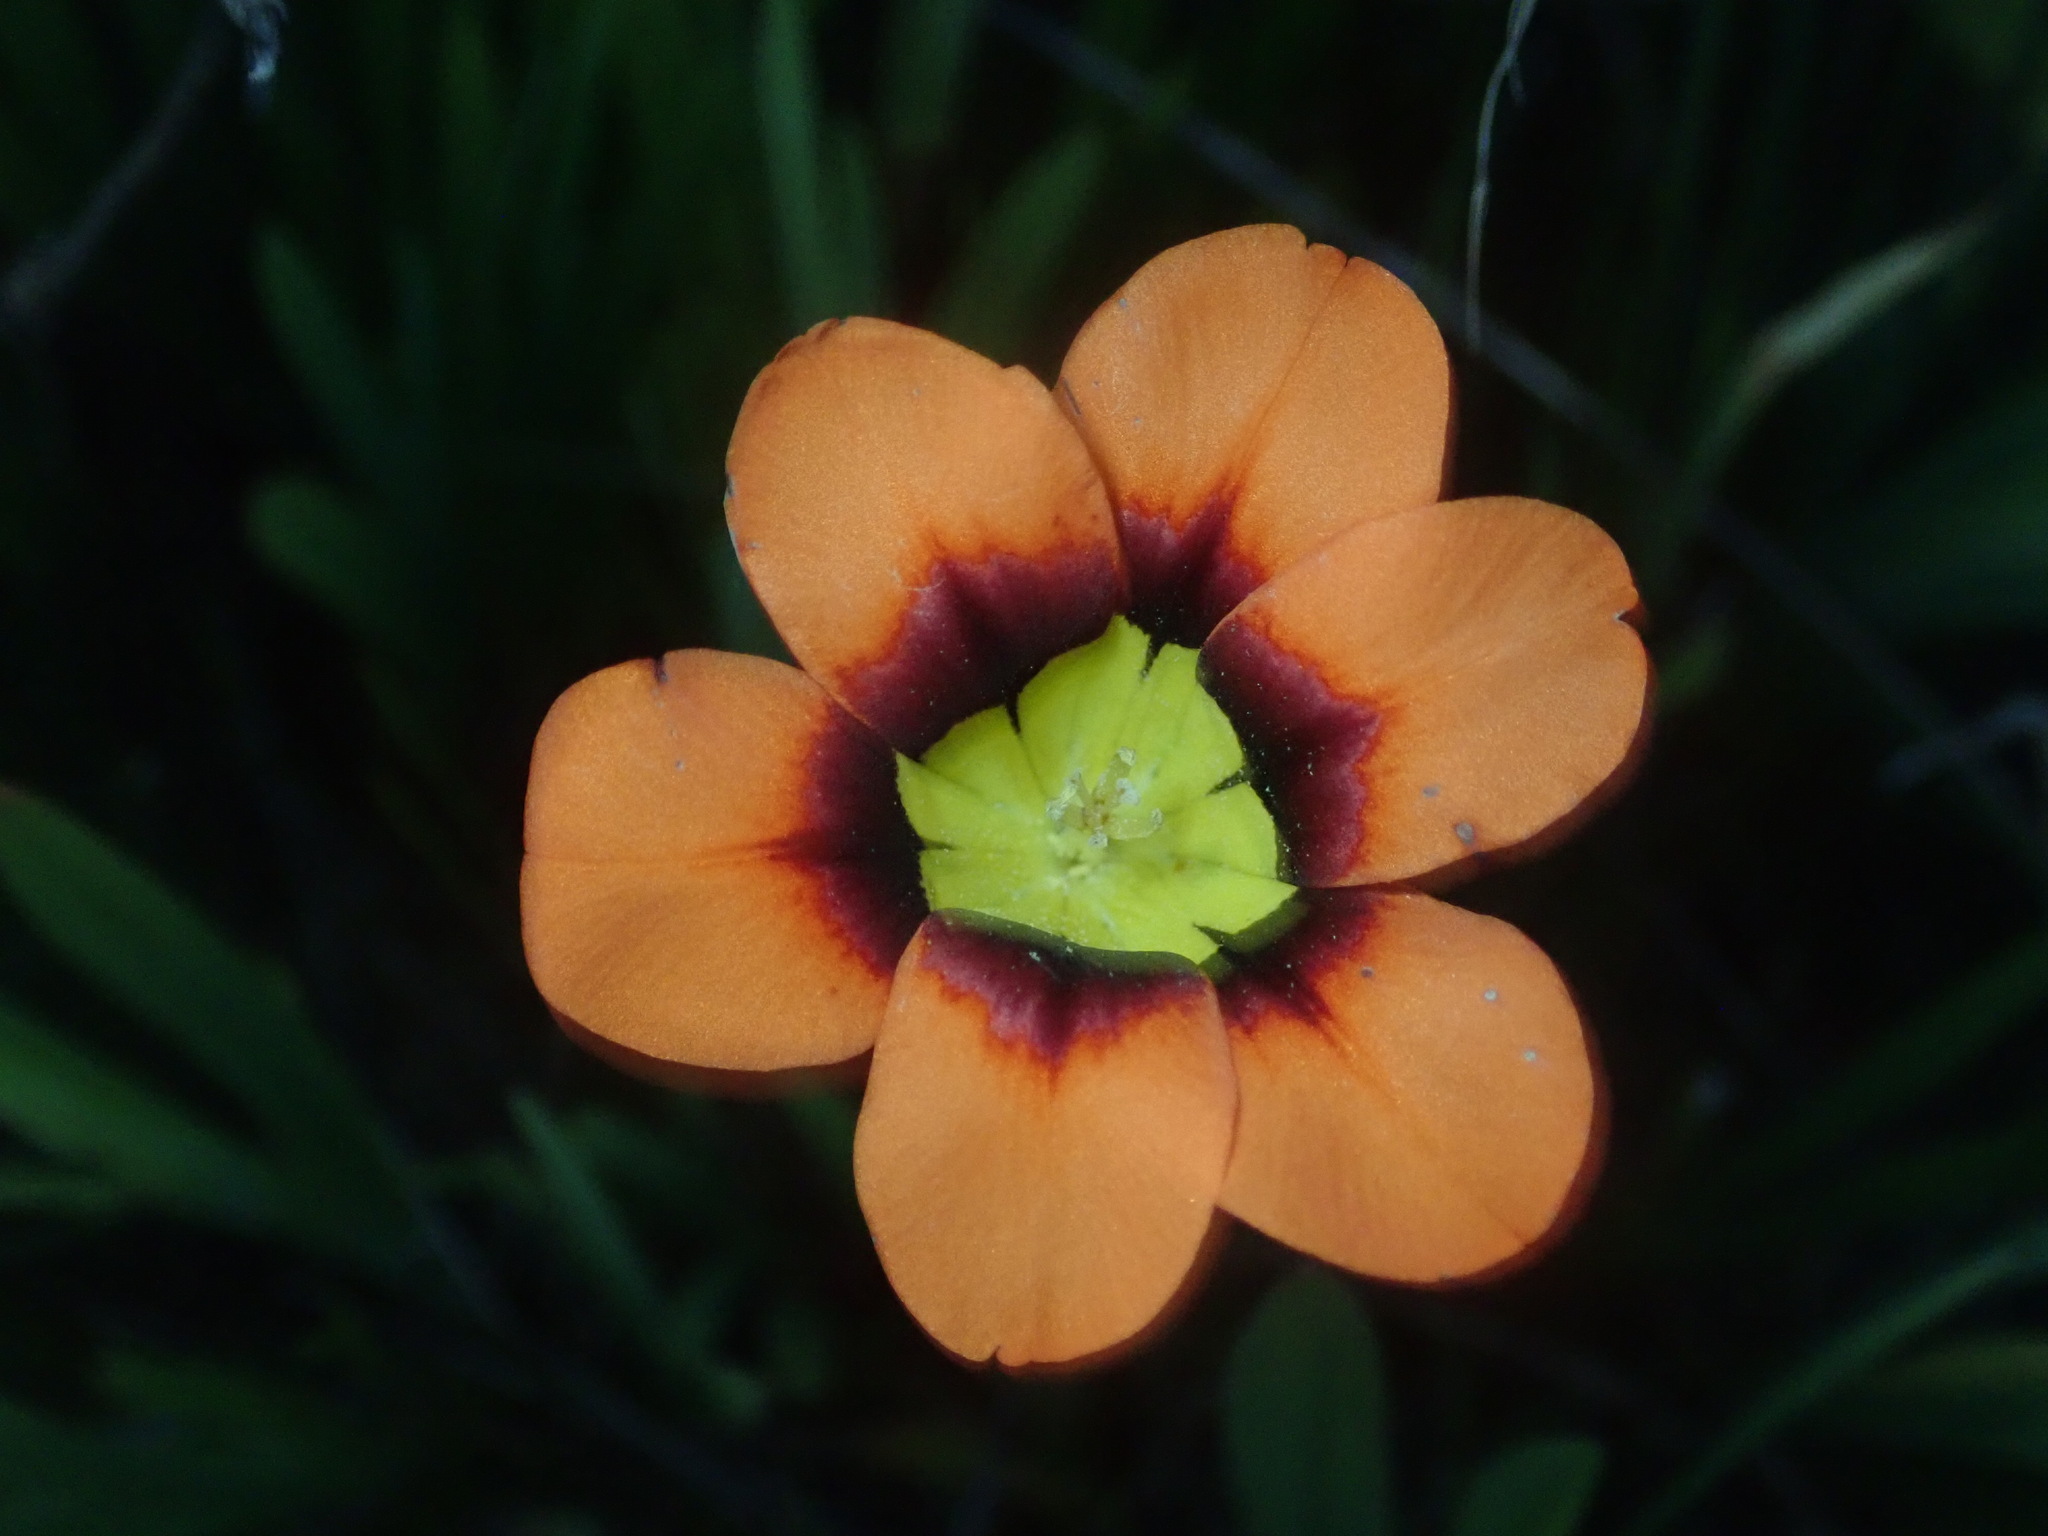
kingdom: Plantae
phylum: Tracheophyta
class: Liliopsida
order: Asparagales
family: Iridaceae
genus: Sparaxis
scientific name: Sparaxis tricolor
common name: Wandflower
